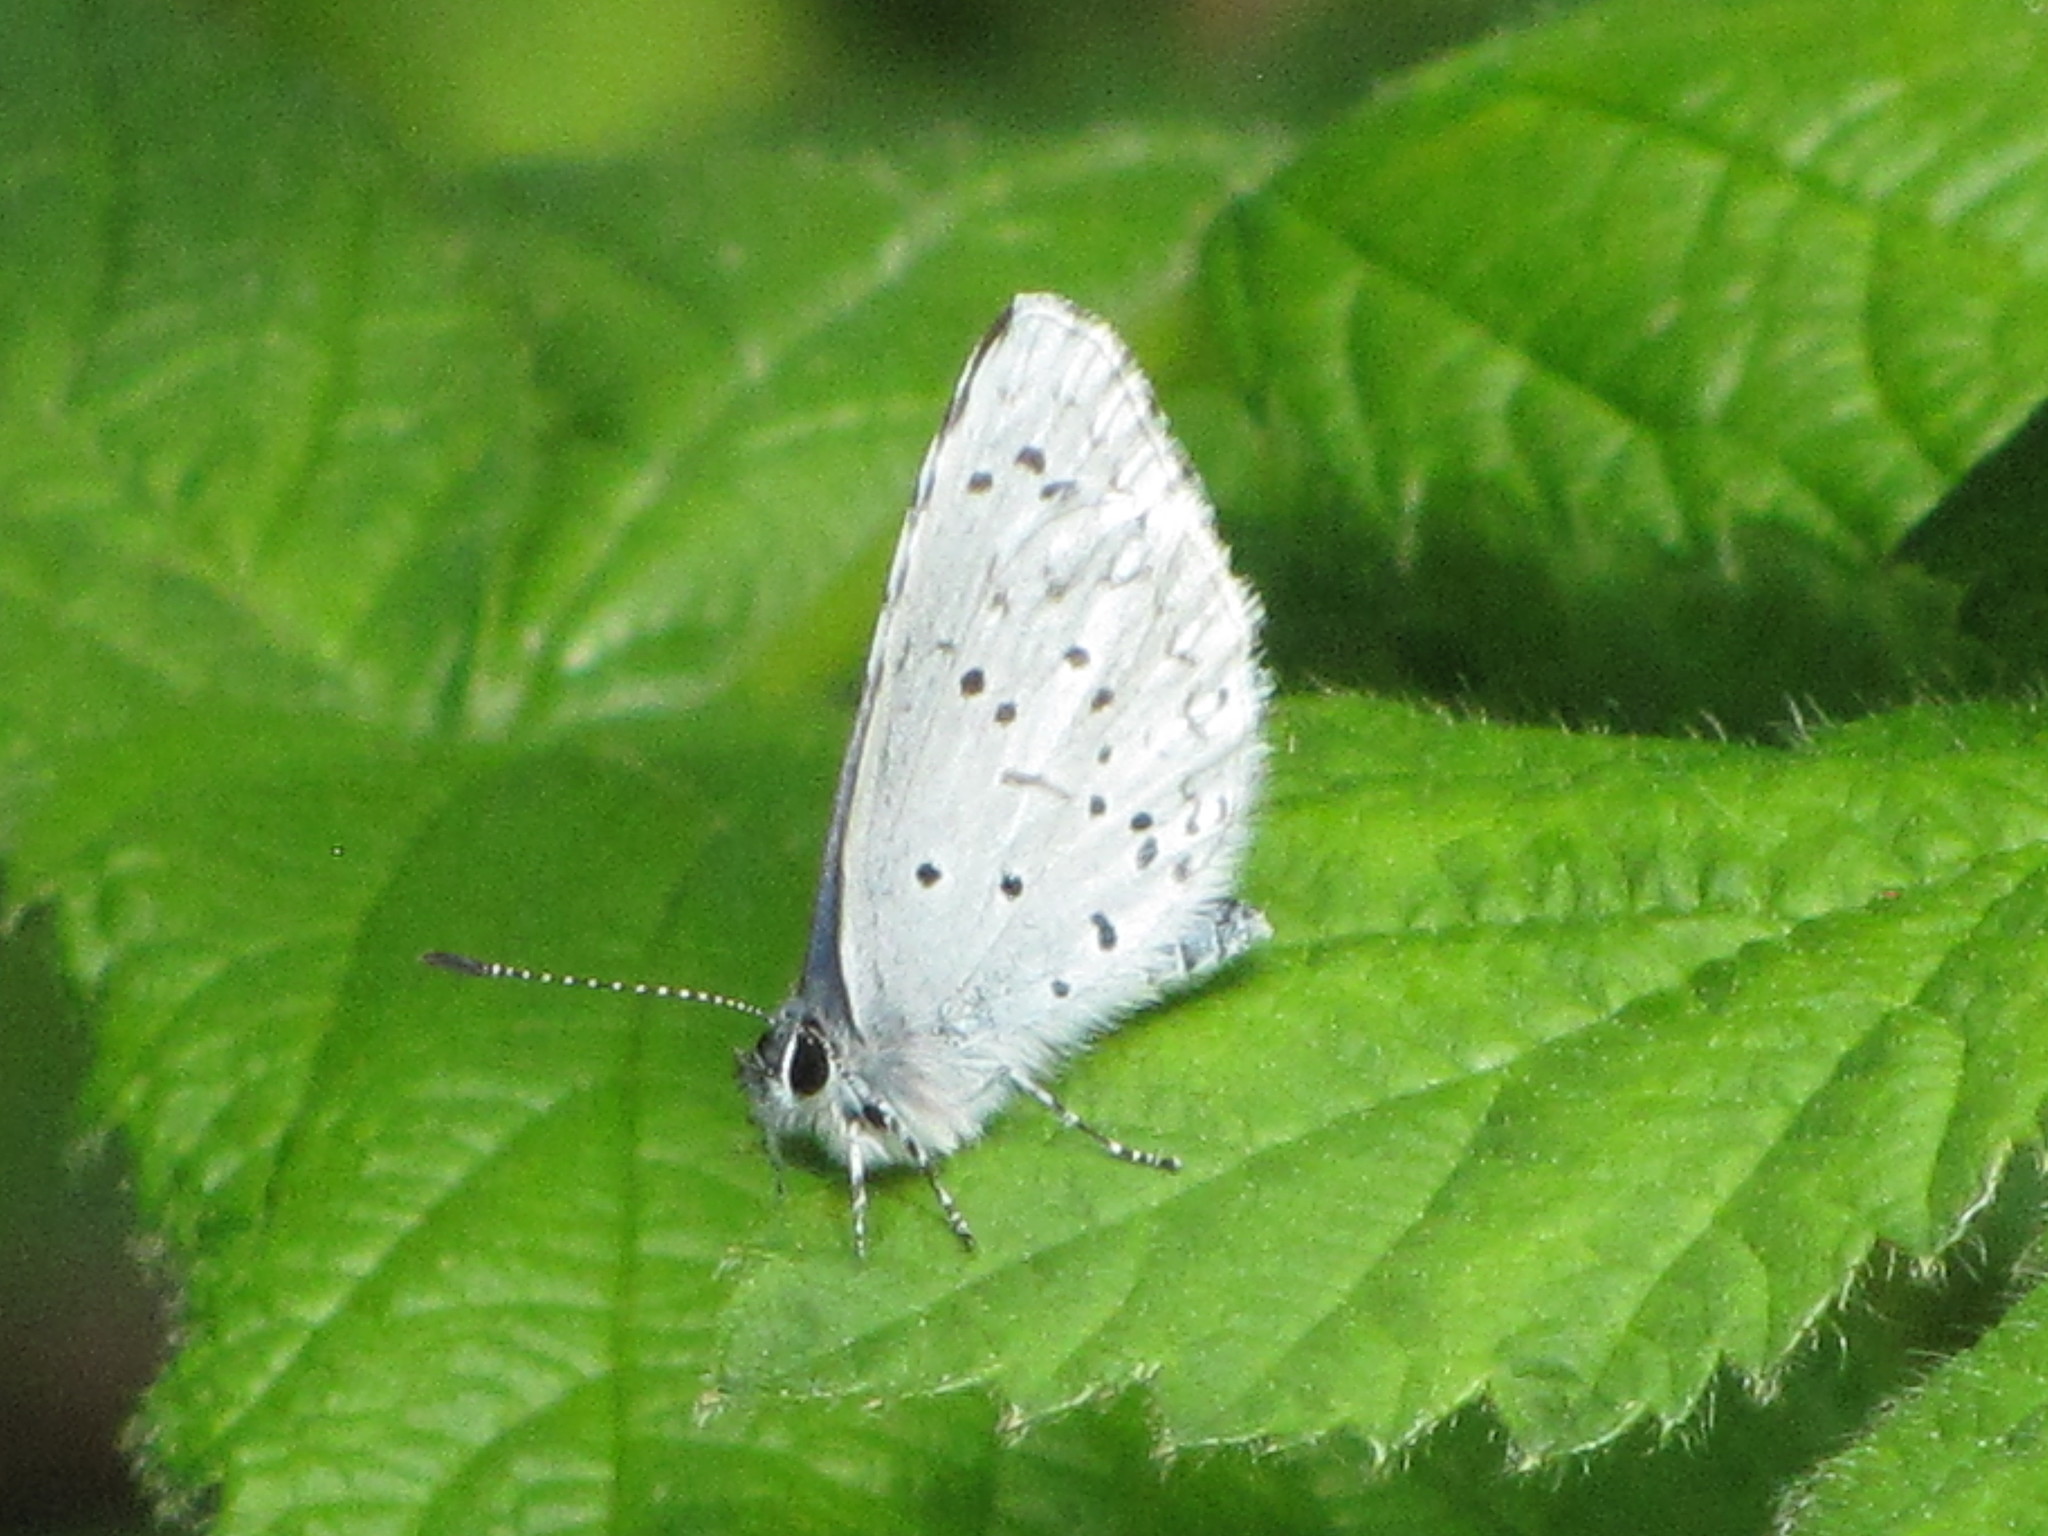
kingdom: Animalia
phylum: Arthropoda
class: Insecta
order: Lepidoptera
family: Lycaenidae
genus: Celastrina
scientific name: Celastrina ladon
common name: Spring azure
